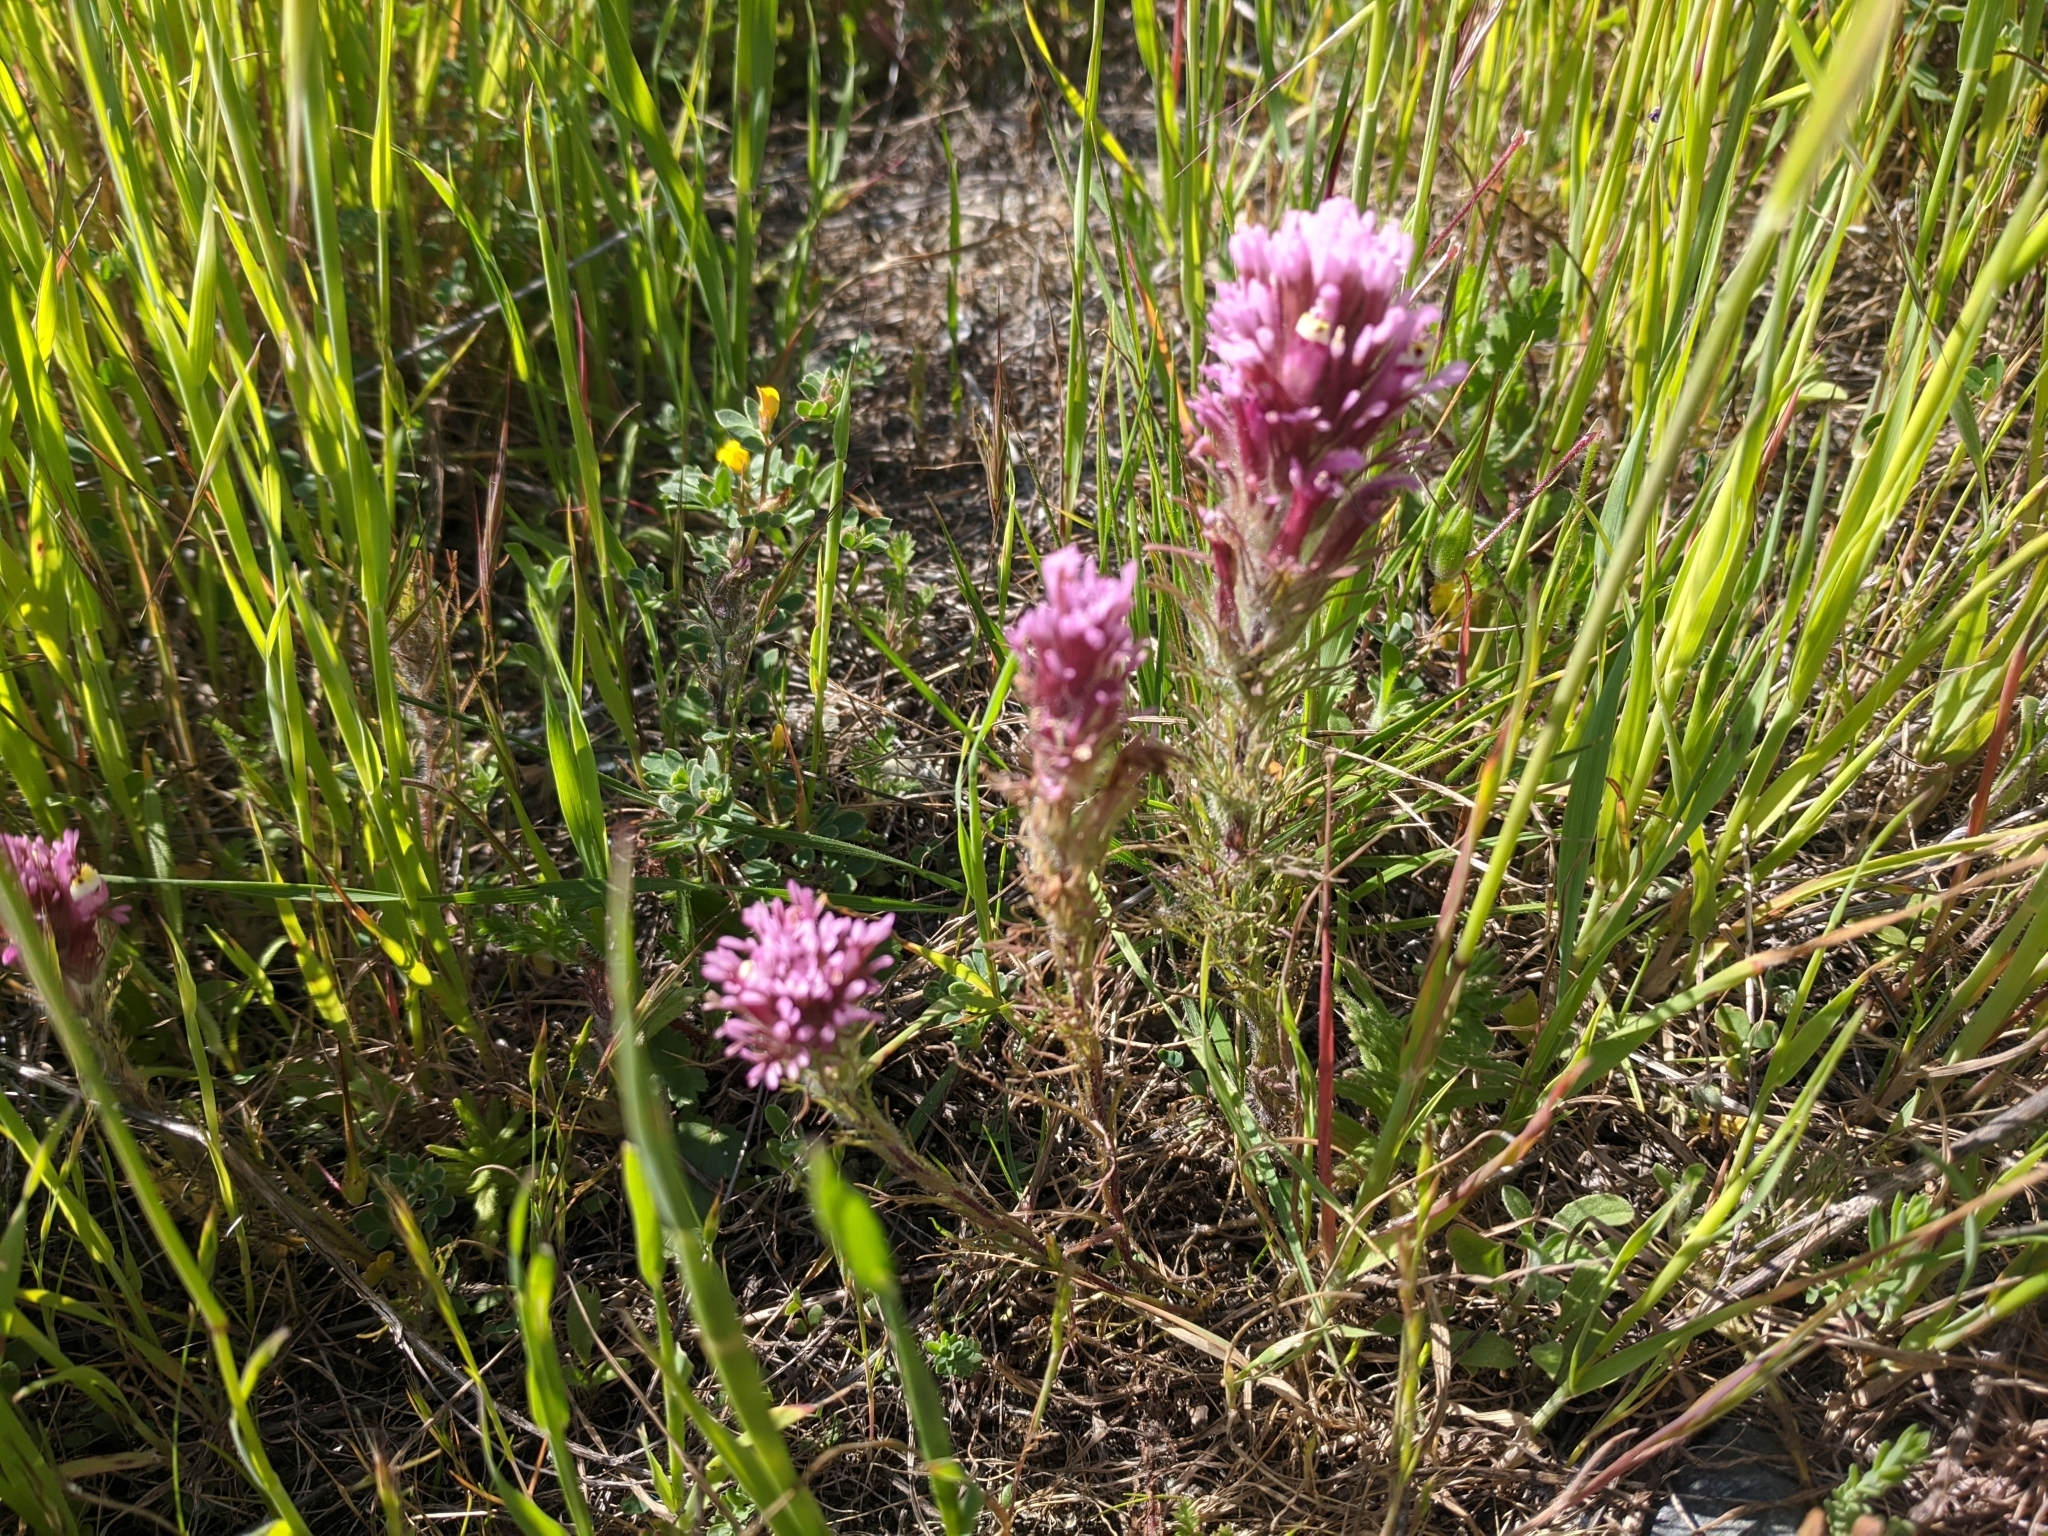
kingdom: Plantae
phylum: Tracheophyta
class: Magnoliopsida
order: Lamiales
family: Orobanchaceae
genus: Castilleja
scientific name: Castilleja exserta
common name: Purple owl-clover
